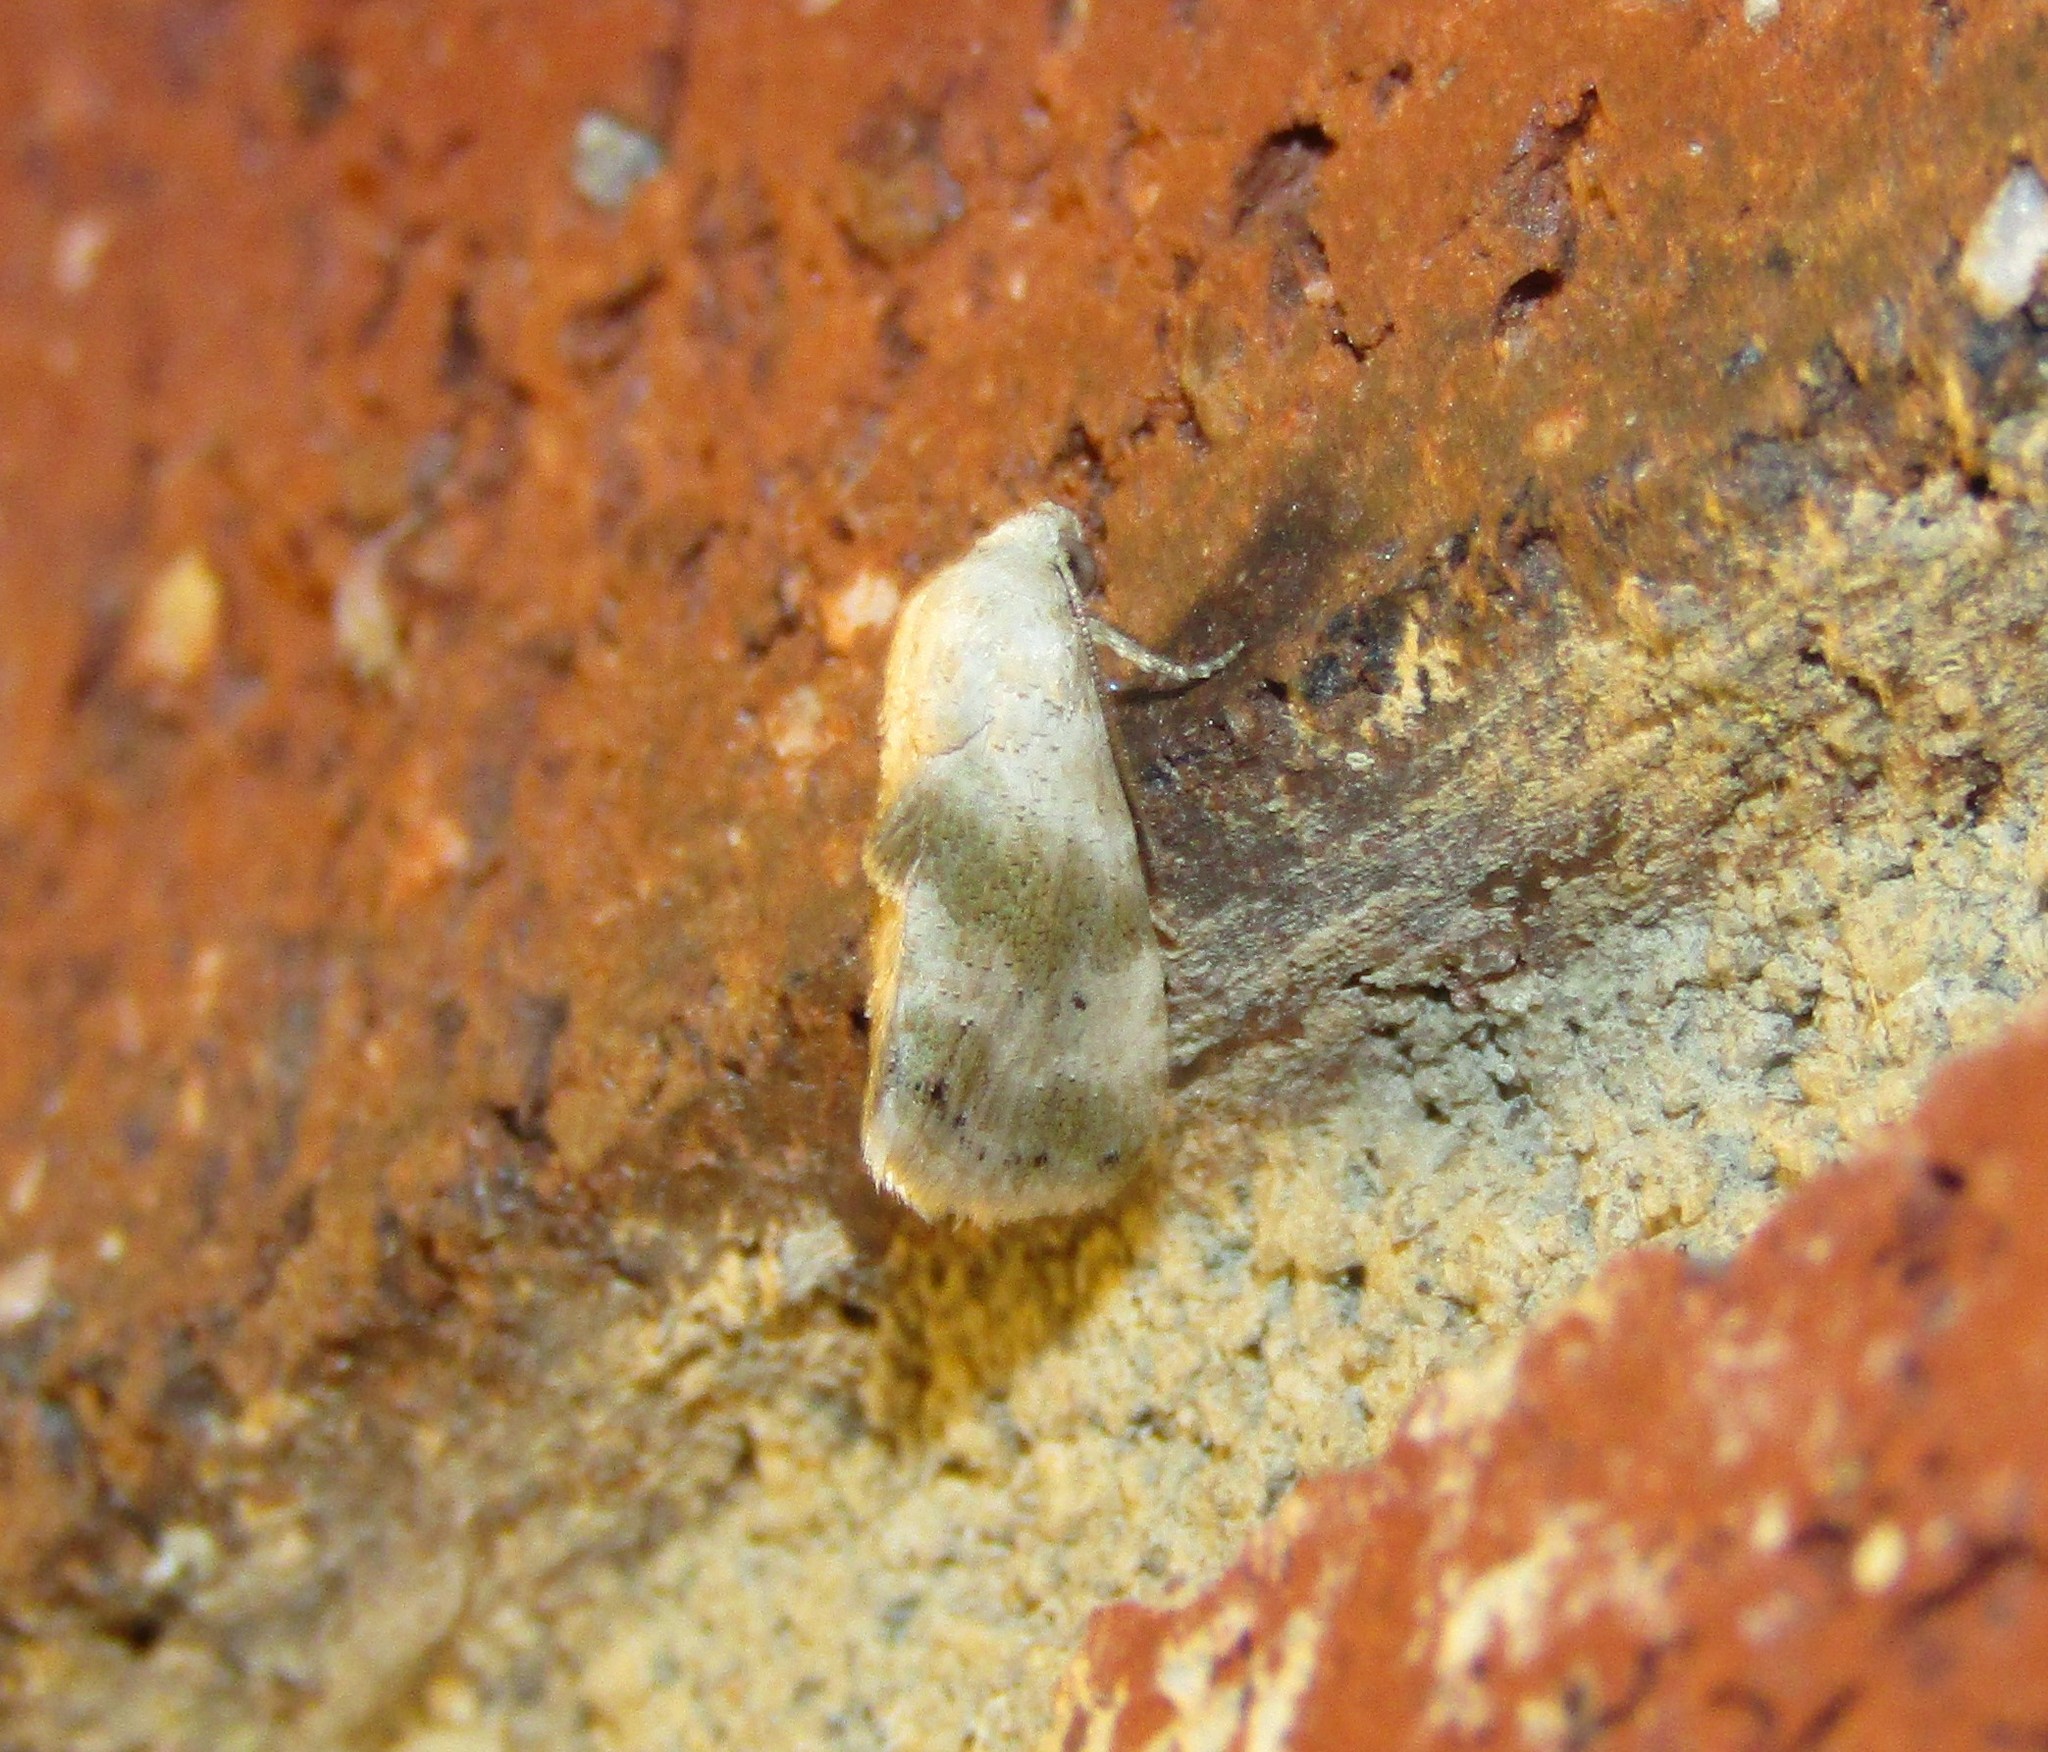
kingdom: Animalia
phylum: Arthropoda
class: Insecta
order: Lepidoptera
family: Noctuidae
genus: Eublemma
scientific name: Eublemma minima
